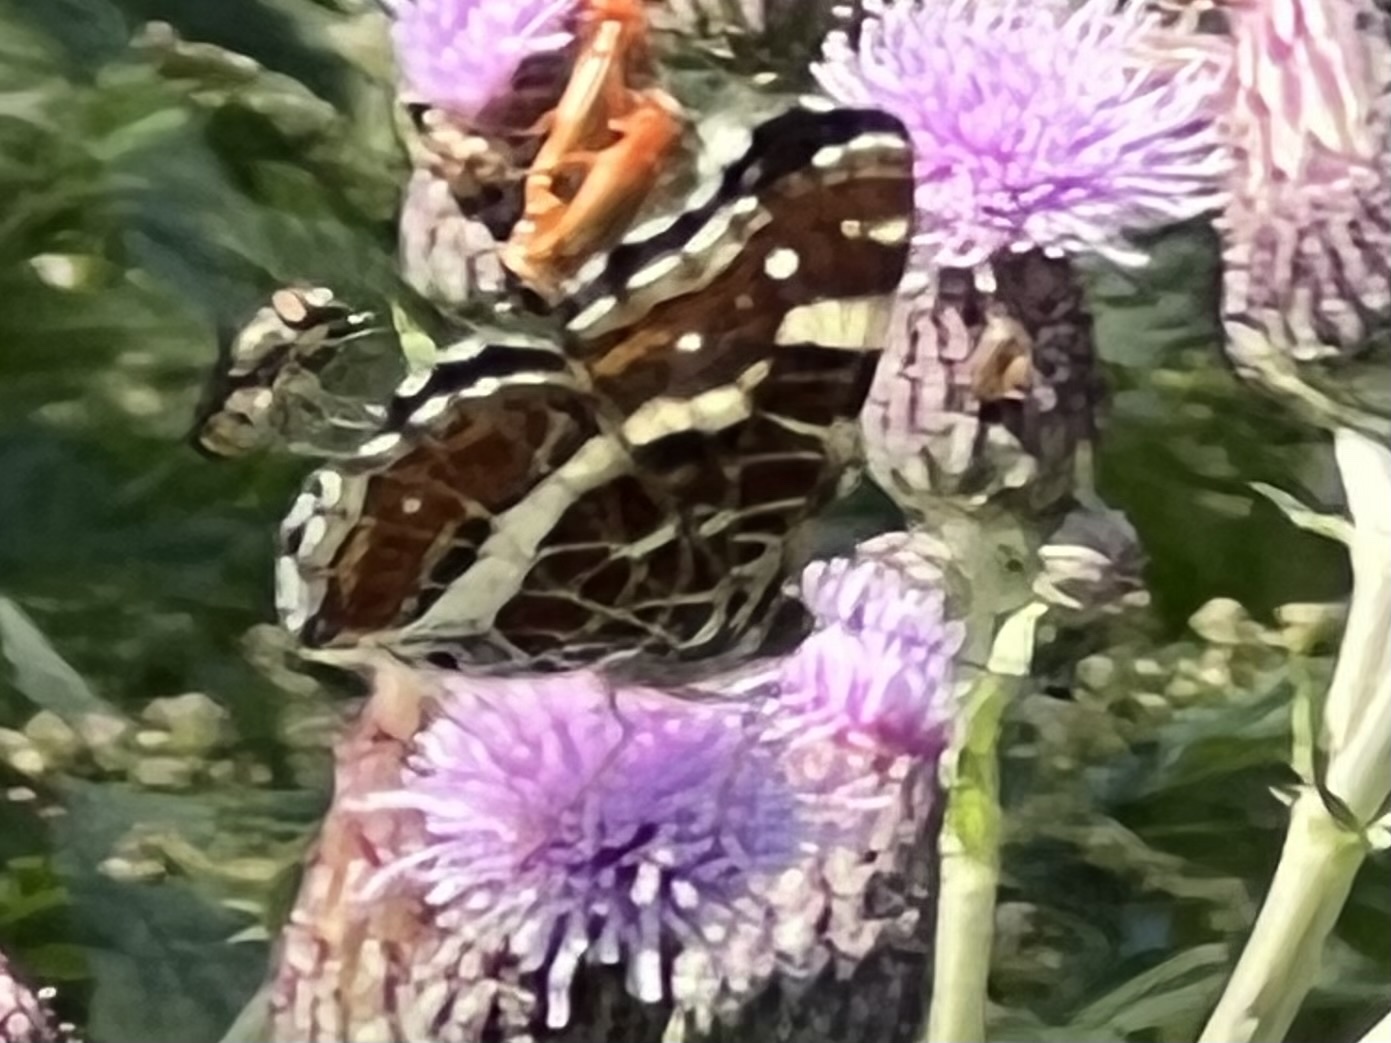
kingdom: Animalia
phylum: Arthropoda
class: Insecta
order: Lepidoptera
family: Nymphalidae
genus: Araschnia
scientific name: Araschnia levana
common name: Map butterfly
